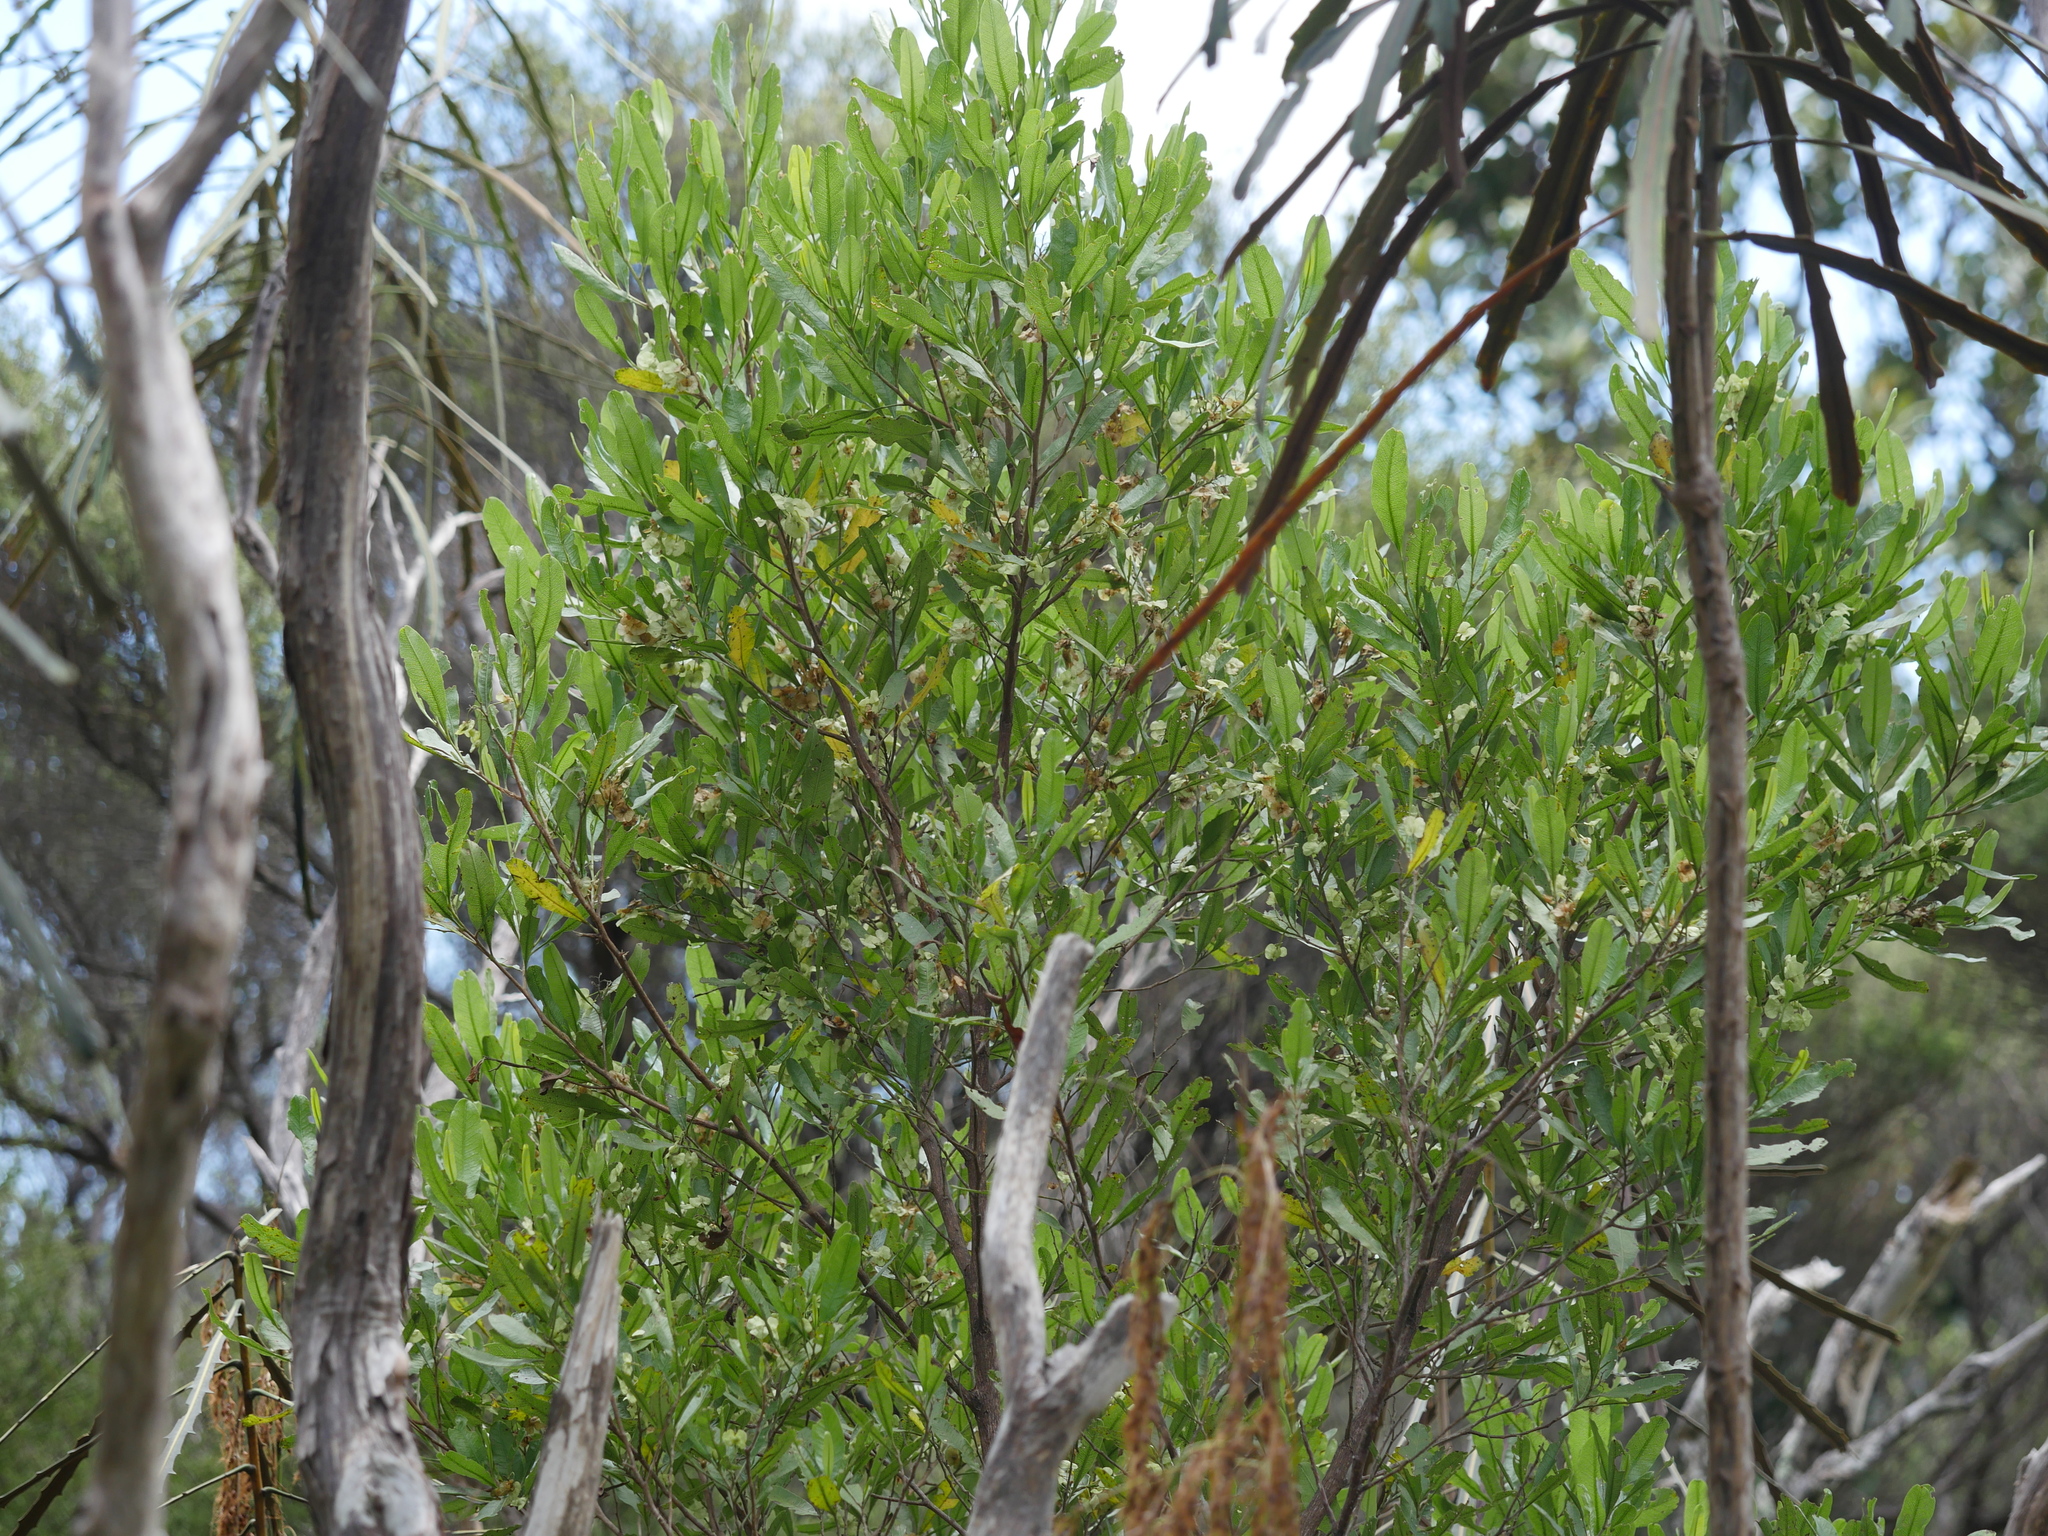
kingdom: Plantae
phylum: Tracheophyta
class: Magnoliopsida
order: Sapindales
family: Sapindaceae
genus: Dodonaea
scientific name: Dodonaea viscosa
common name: Hopbush
